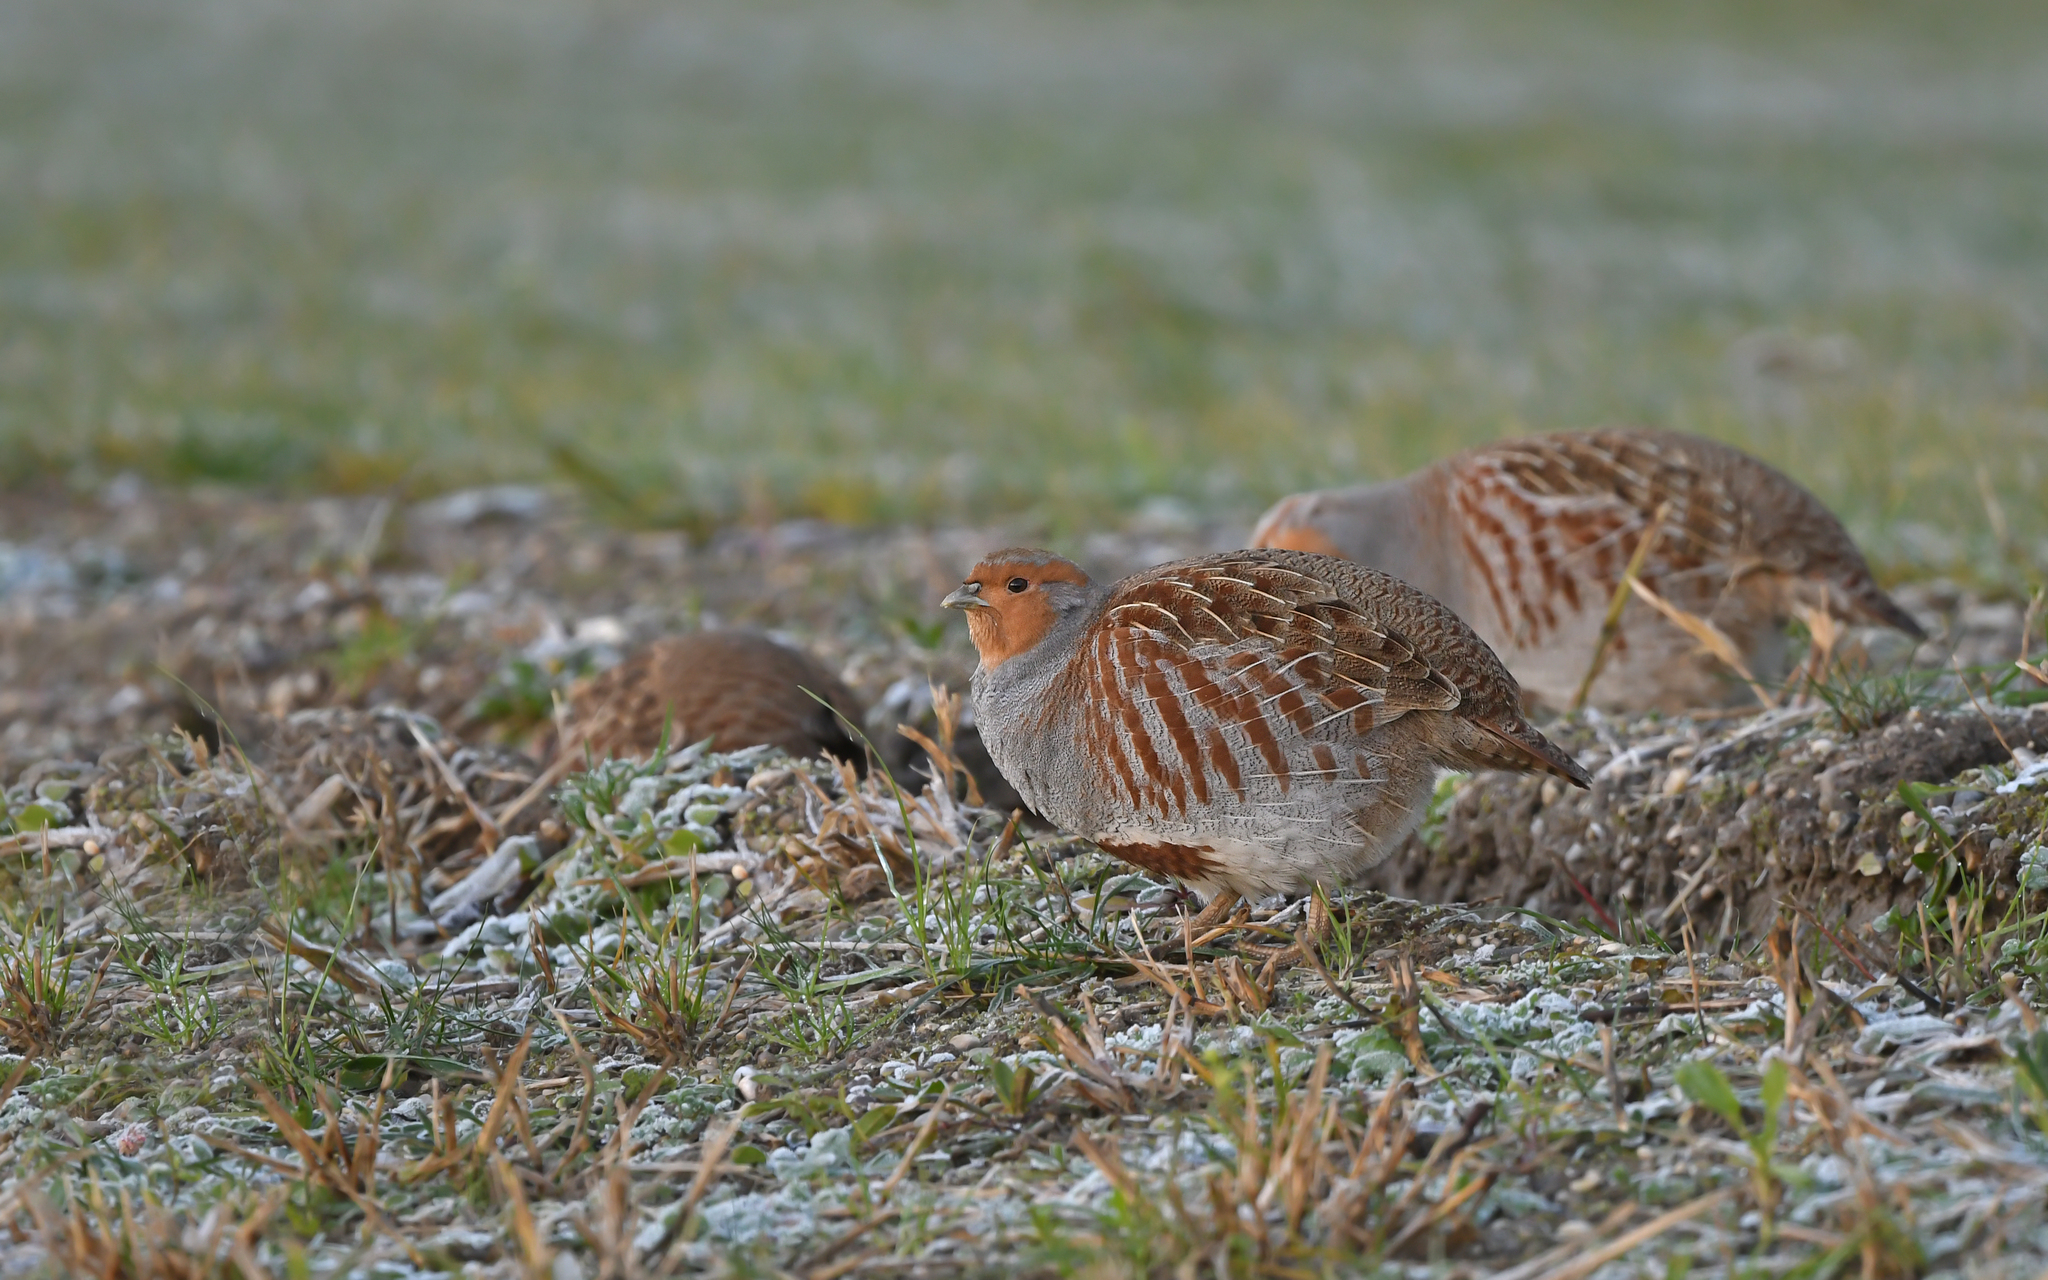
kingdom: Animalia
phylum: Chordata
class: Aves
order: Galliformes
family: Phasianidae
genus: Perdix
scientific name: Perdix perdix
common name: Grey partridge
